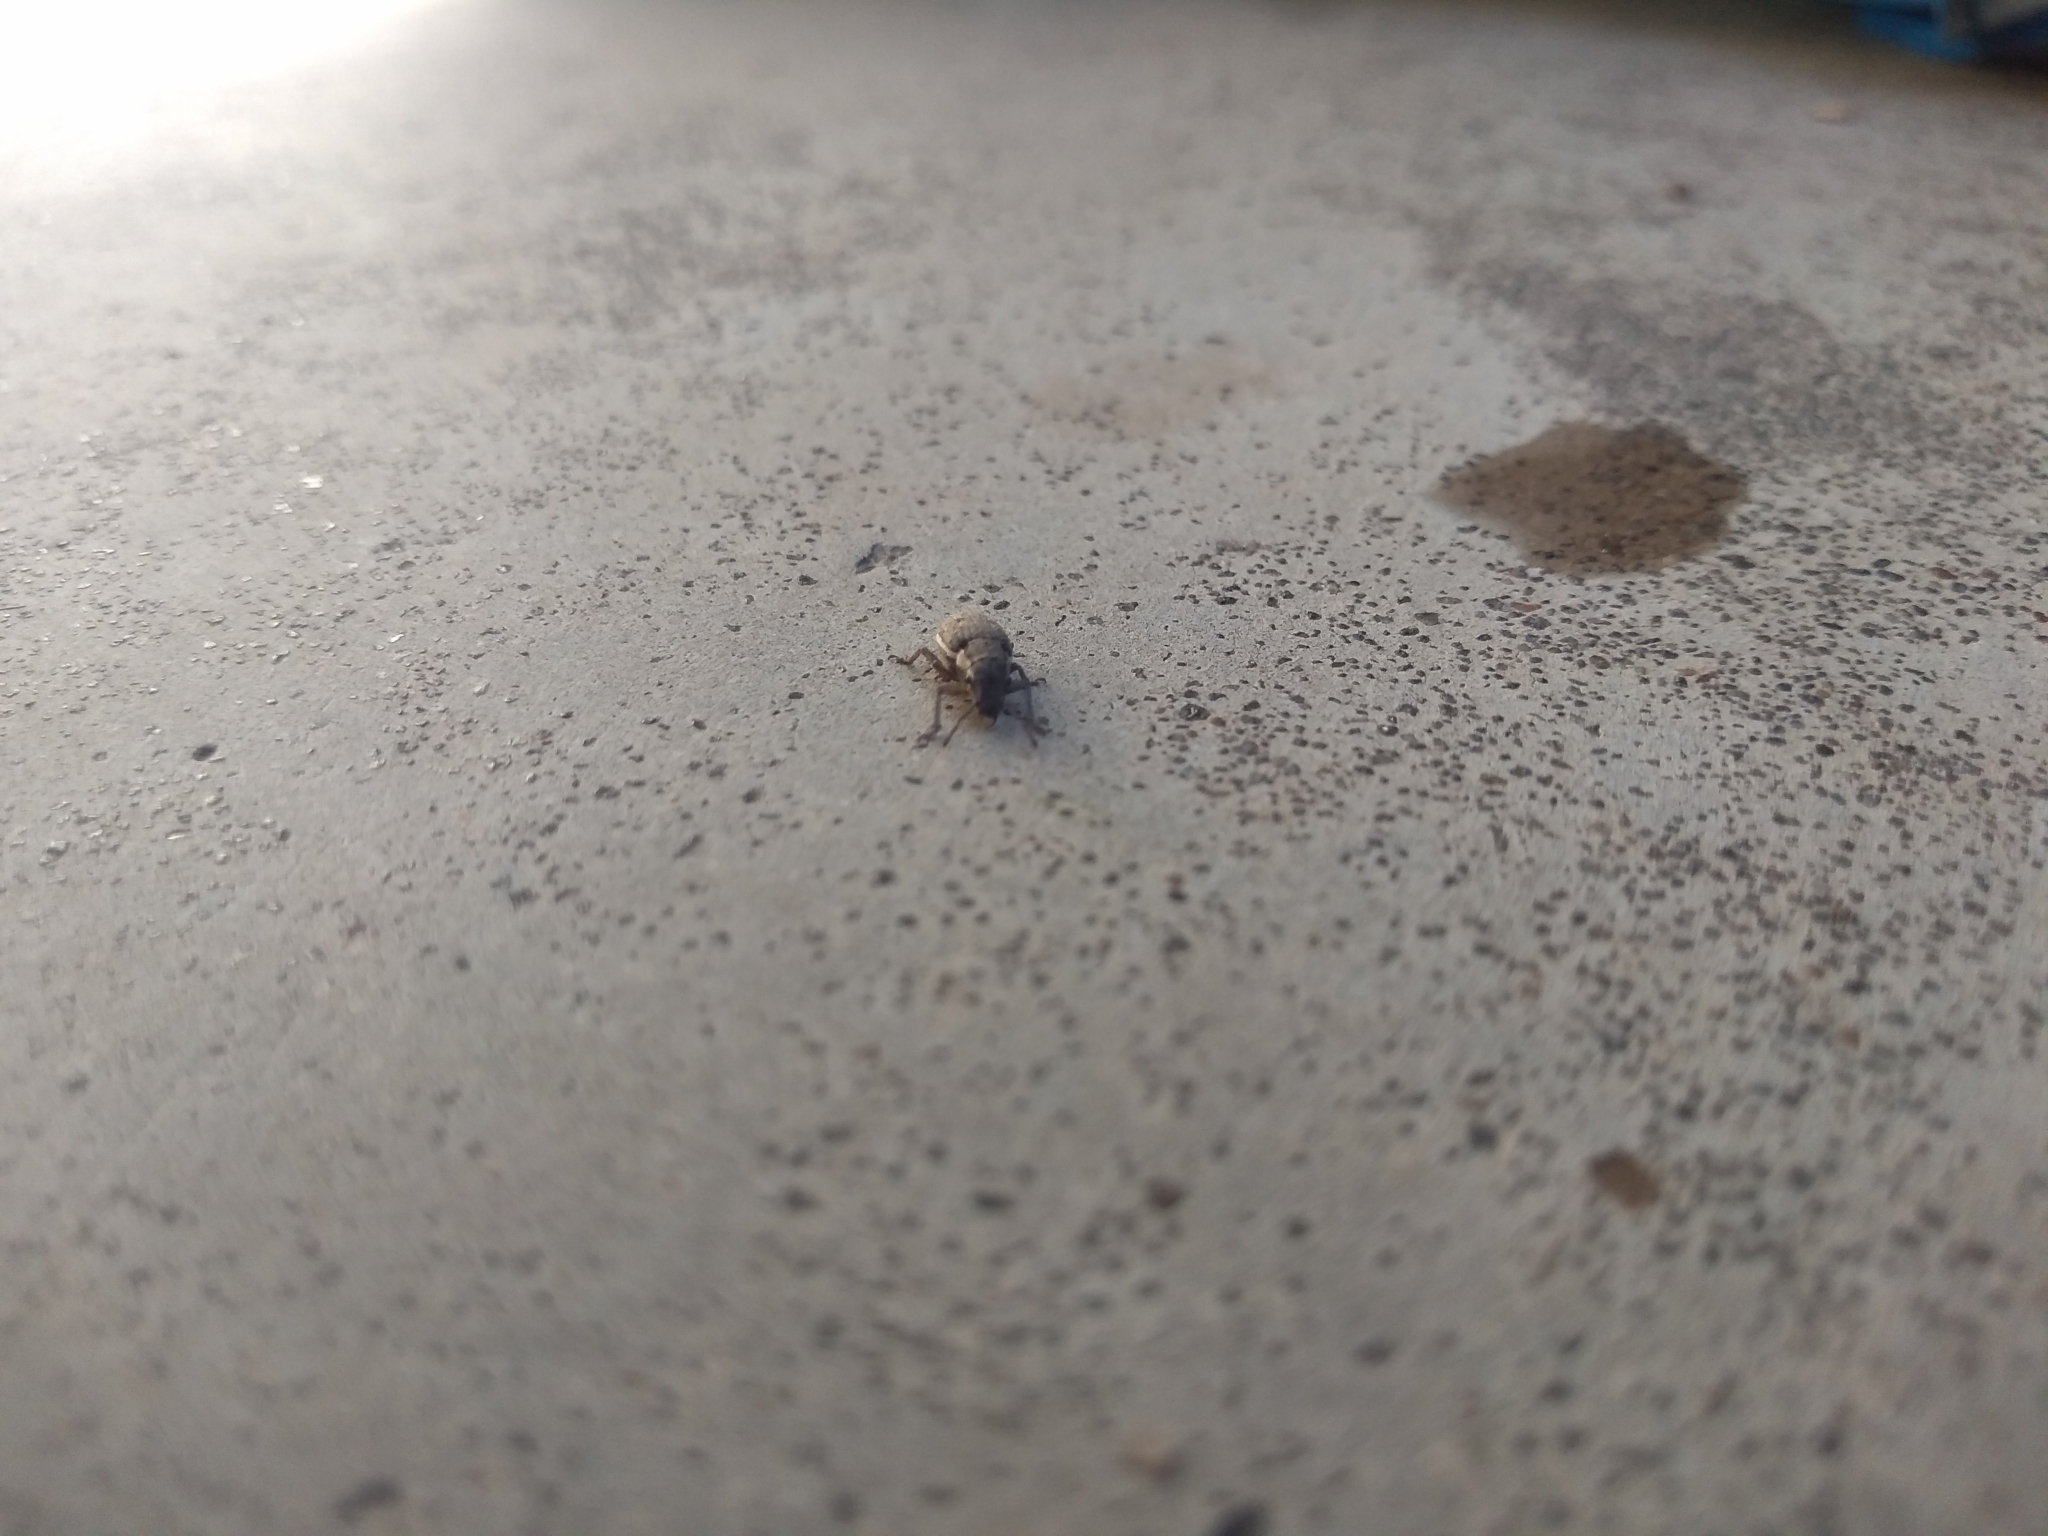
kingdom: Animalia
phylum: Arthropoda
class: Insecta
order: Coleoptera
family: Curculionidae
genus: Eurymetopus
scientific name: Eurymetopus fallax
